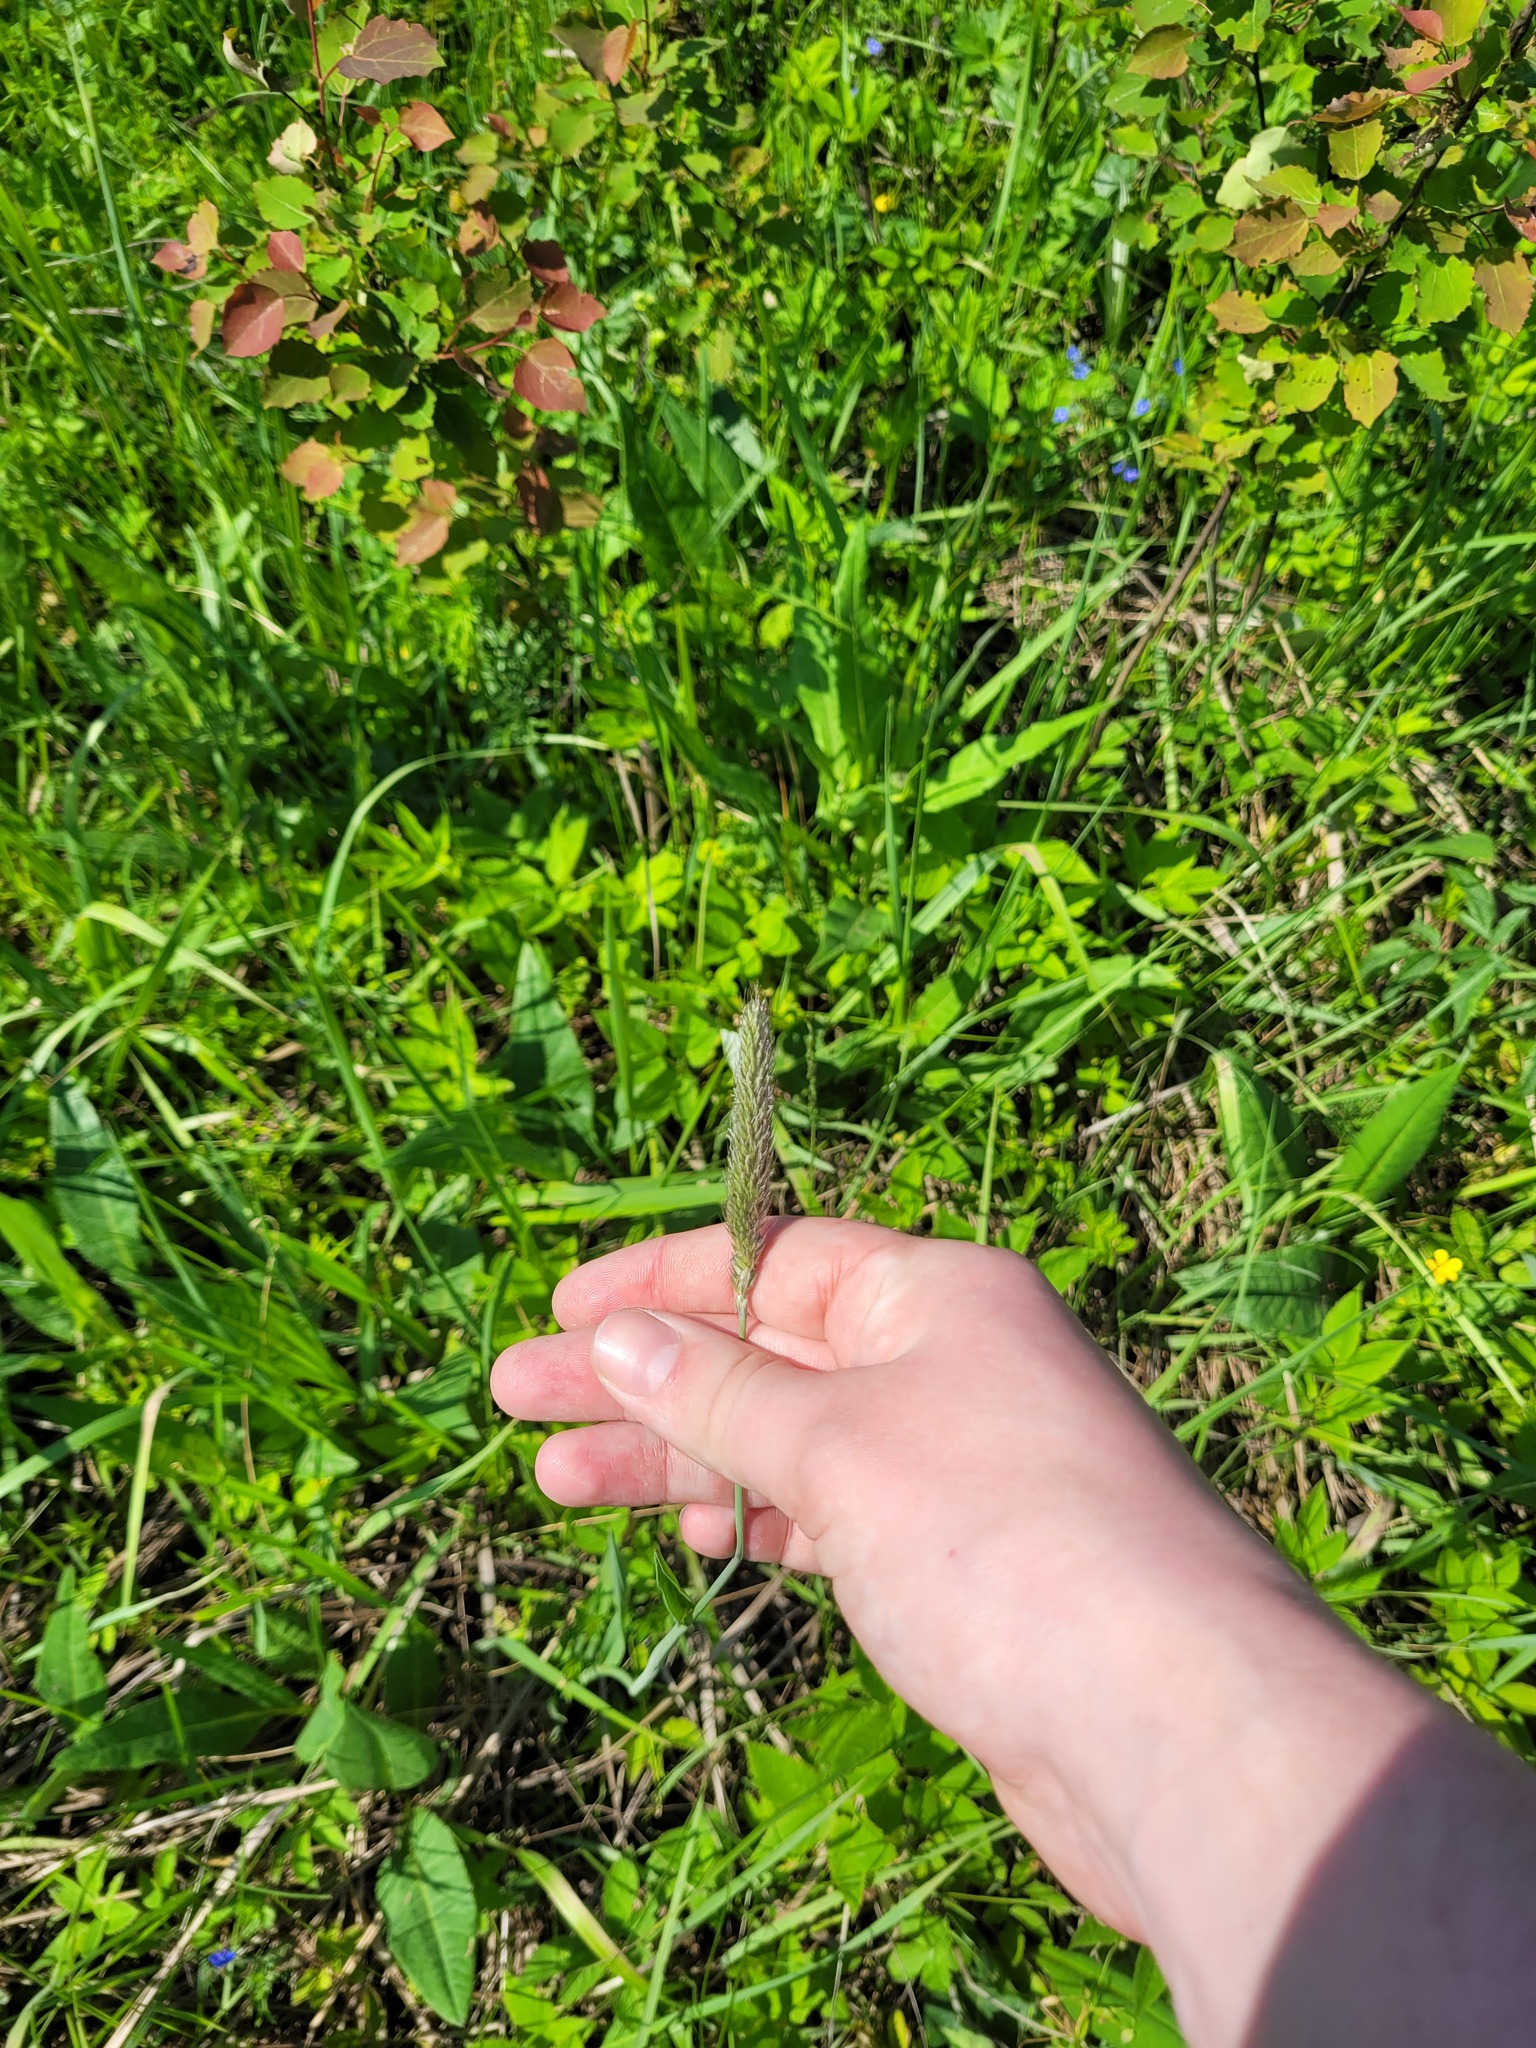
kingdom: Plantae
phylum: Tracheophyta
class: Liliopsida
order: Poales
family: Poaceae
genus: Alopecurus
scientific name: Alopecurus pratensis
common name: Meadow foxtail
